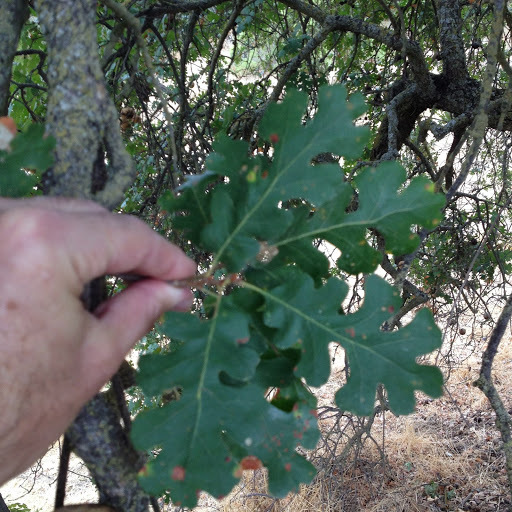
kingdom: Plantae
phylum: Tracheophyta
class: Magnoliopsida
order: Fagales
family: Fagaceae
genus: Quercus
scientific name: Quercus lobata
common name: Valley oak
